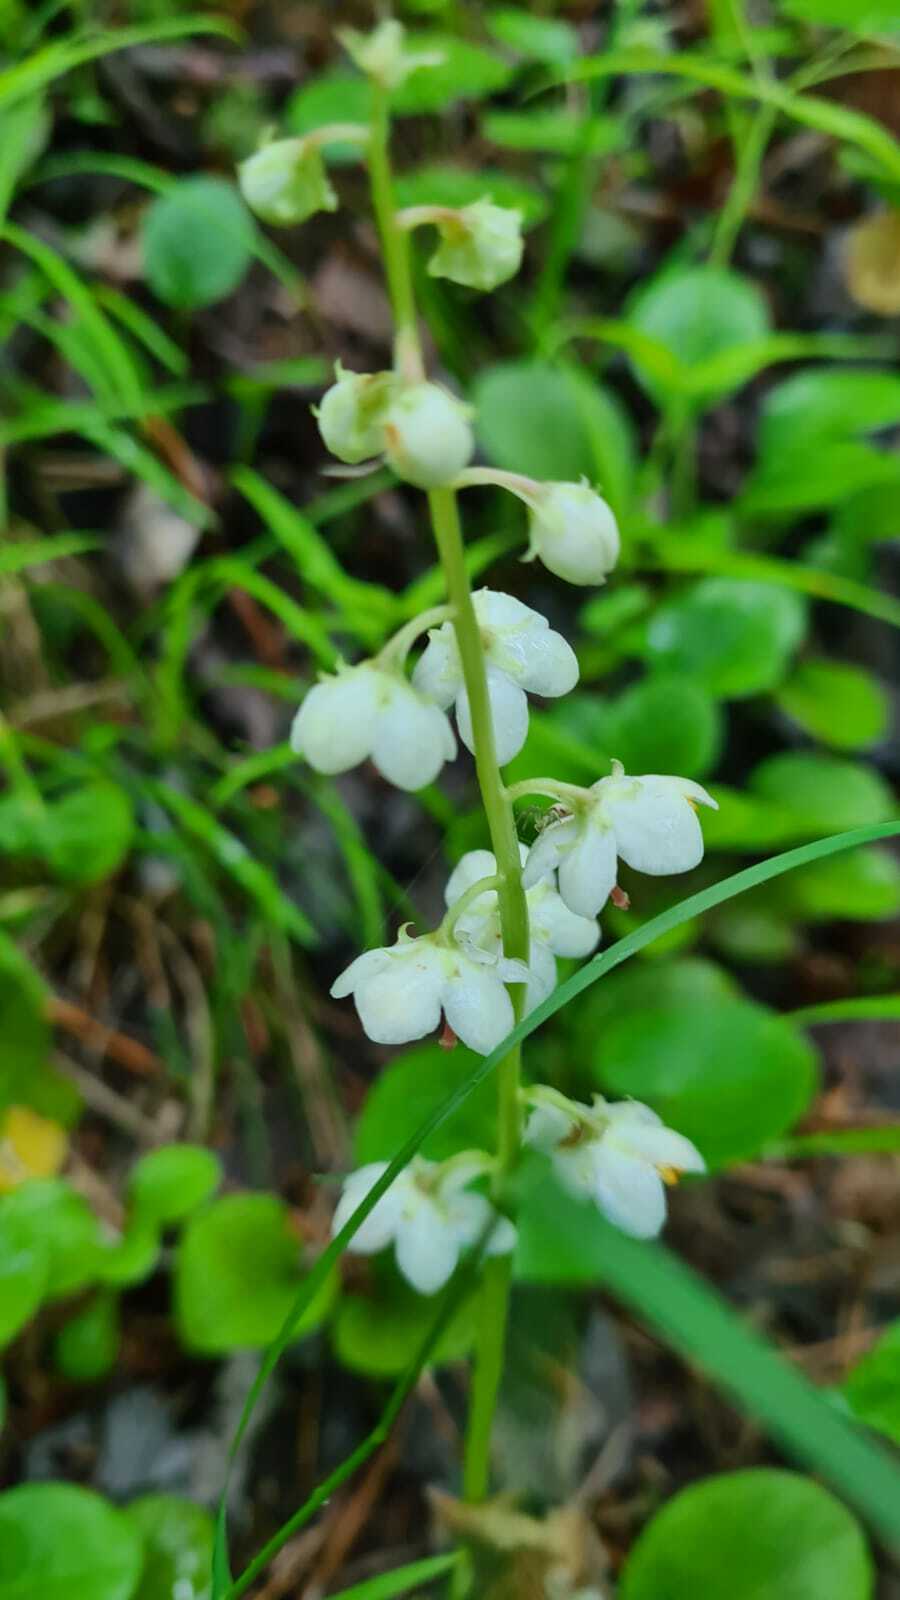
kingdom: Plantae
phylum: Tracheophyta
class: Magnoliopsida
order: Ericales
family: Ericaceae
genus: Pyrola
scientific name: Pyrola rotundifolia
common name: Round-leaved wintergreen
